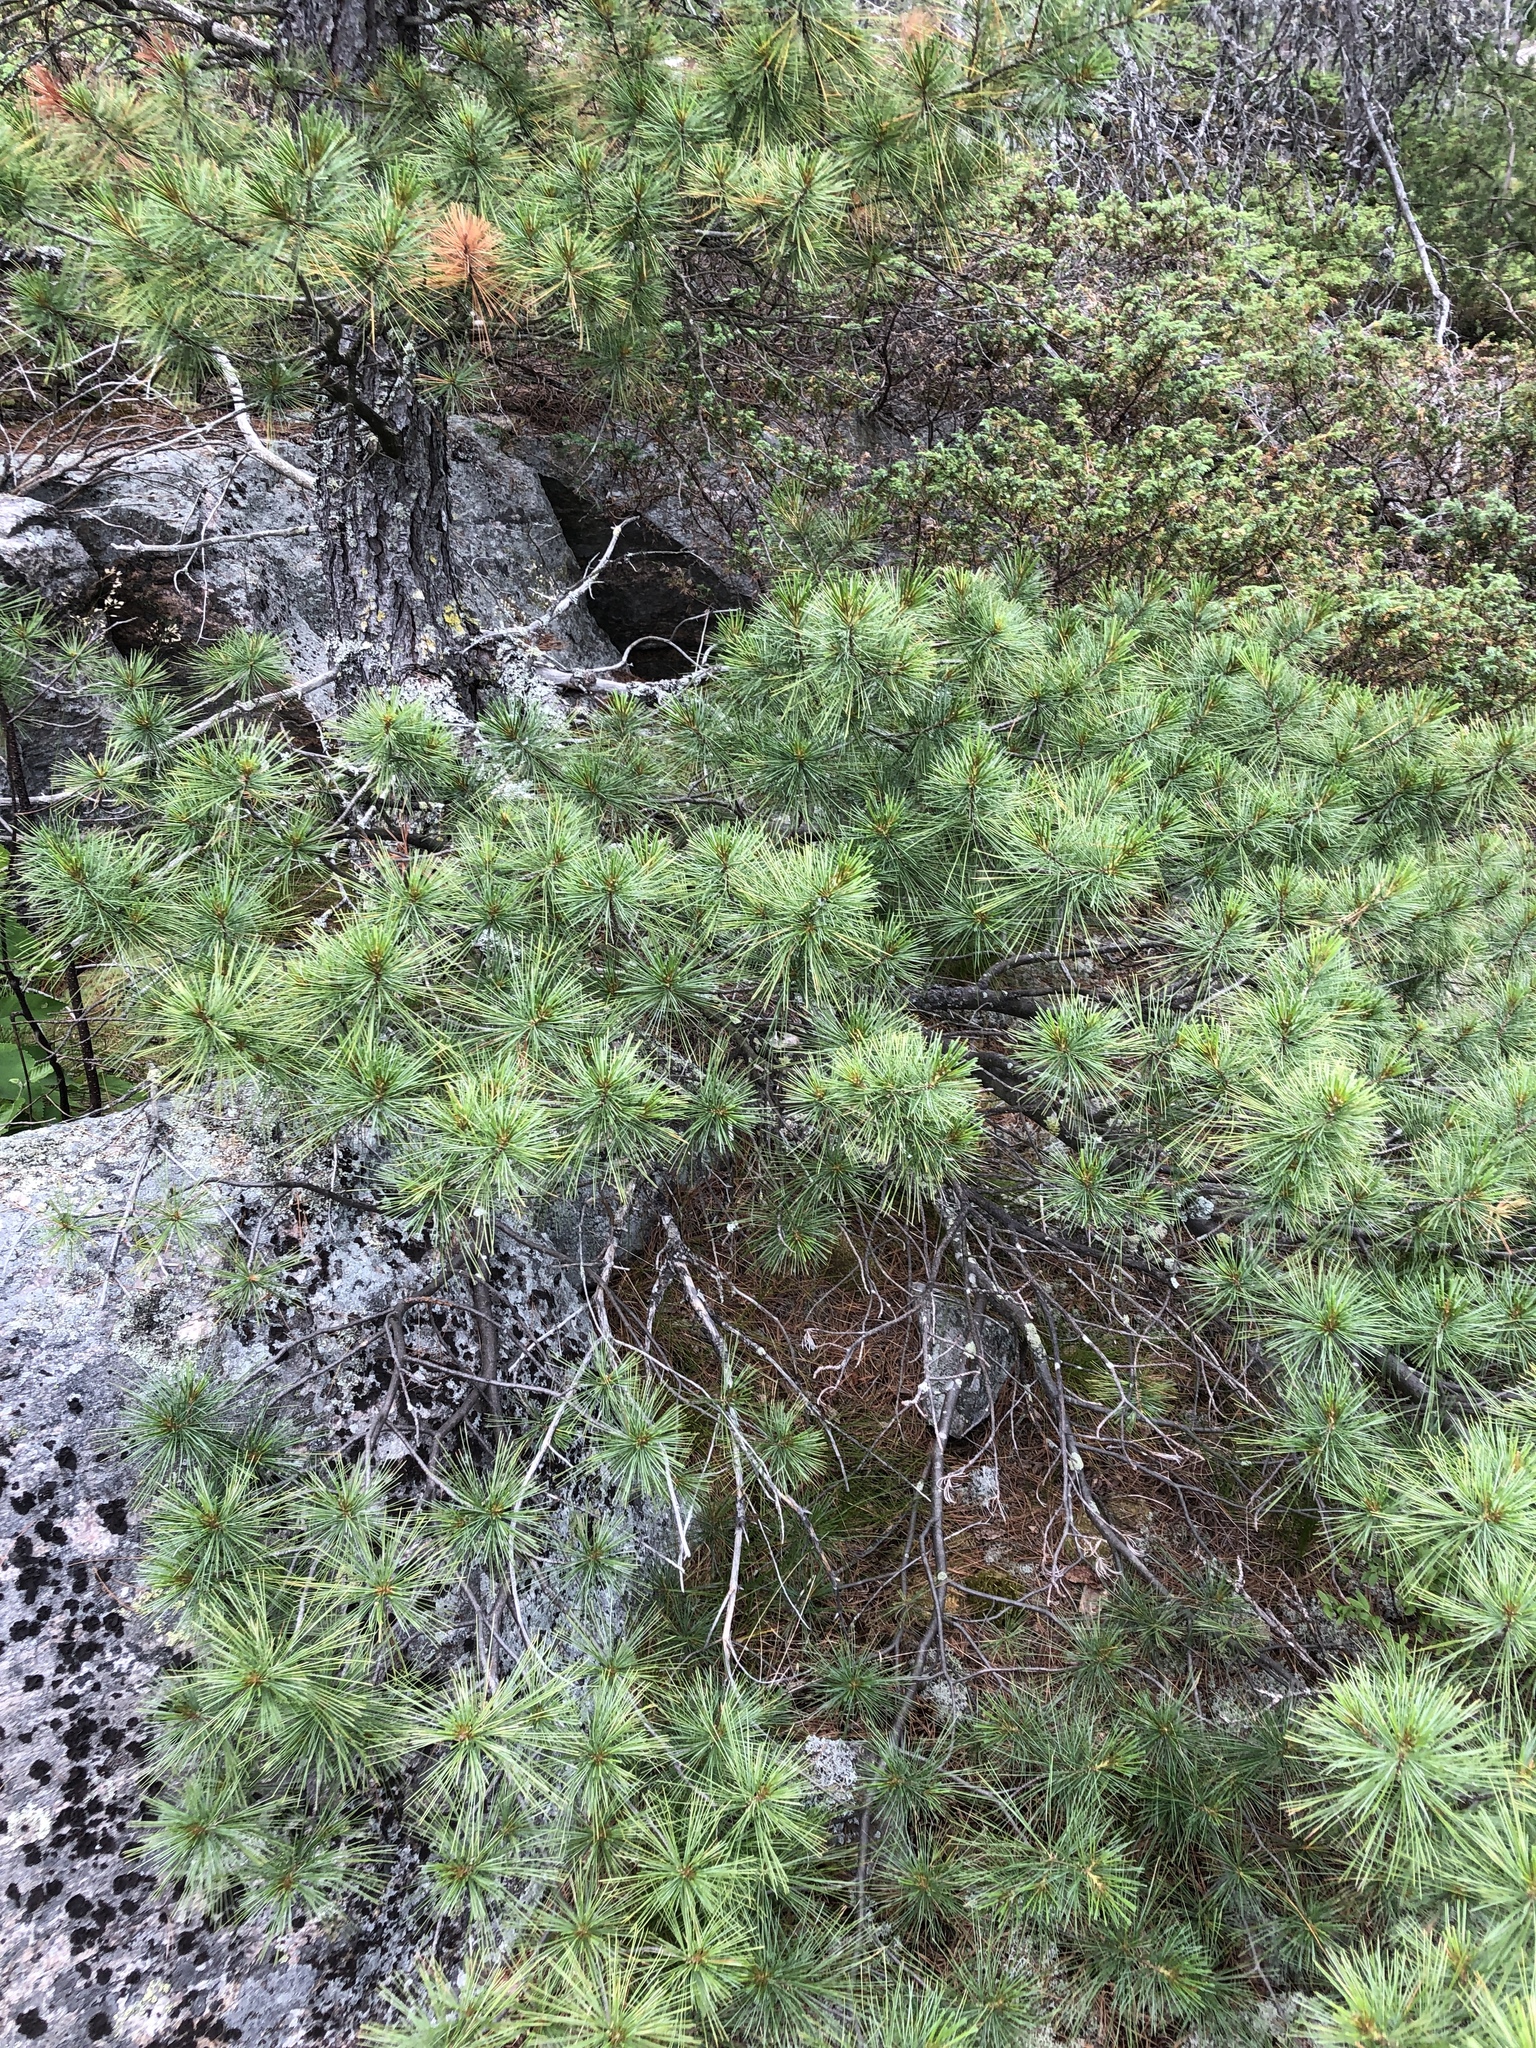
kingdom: Plantae
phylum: Tracheophyta
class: Pinopsida
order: Pinales
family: Pinaceae
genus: Pinus
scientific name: Pinus strobus
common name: Weymouth pine
